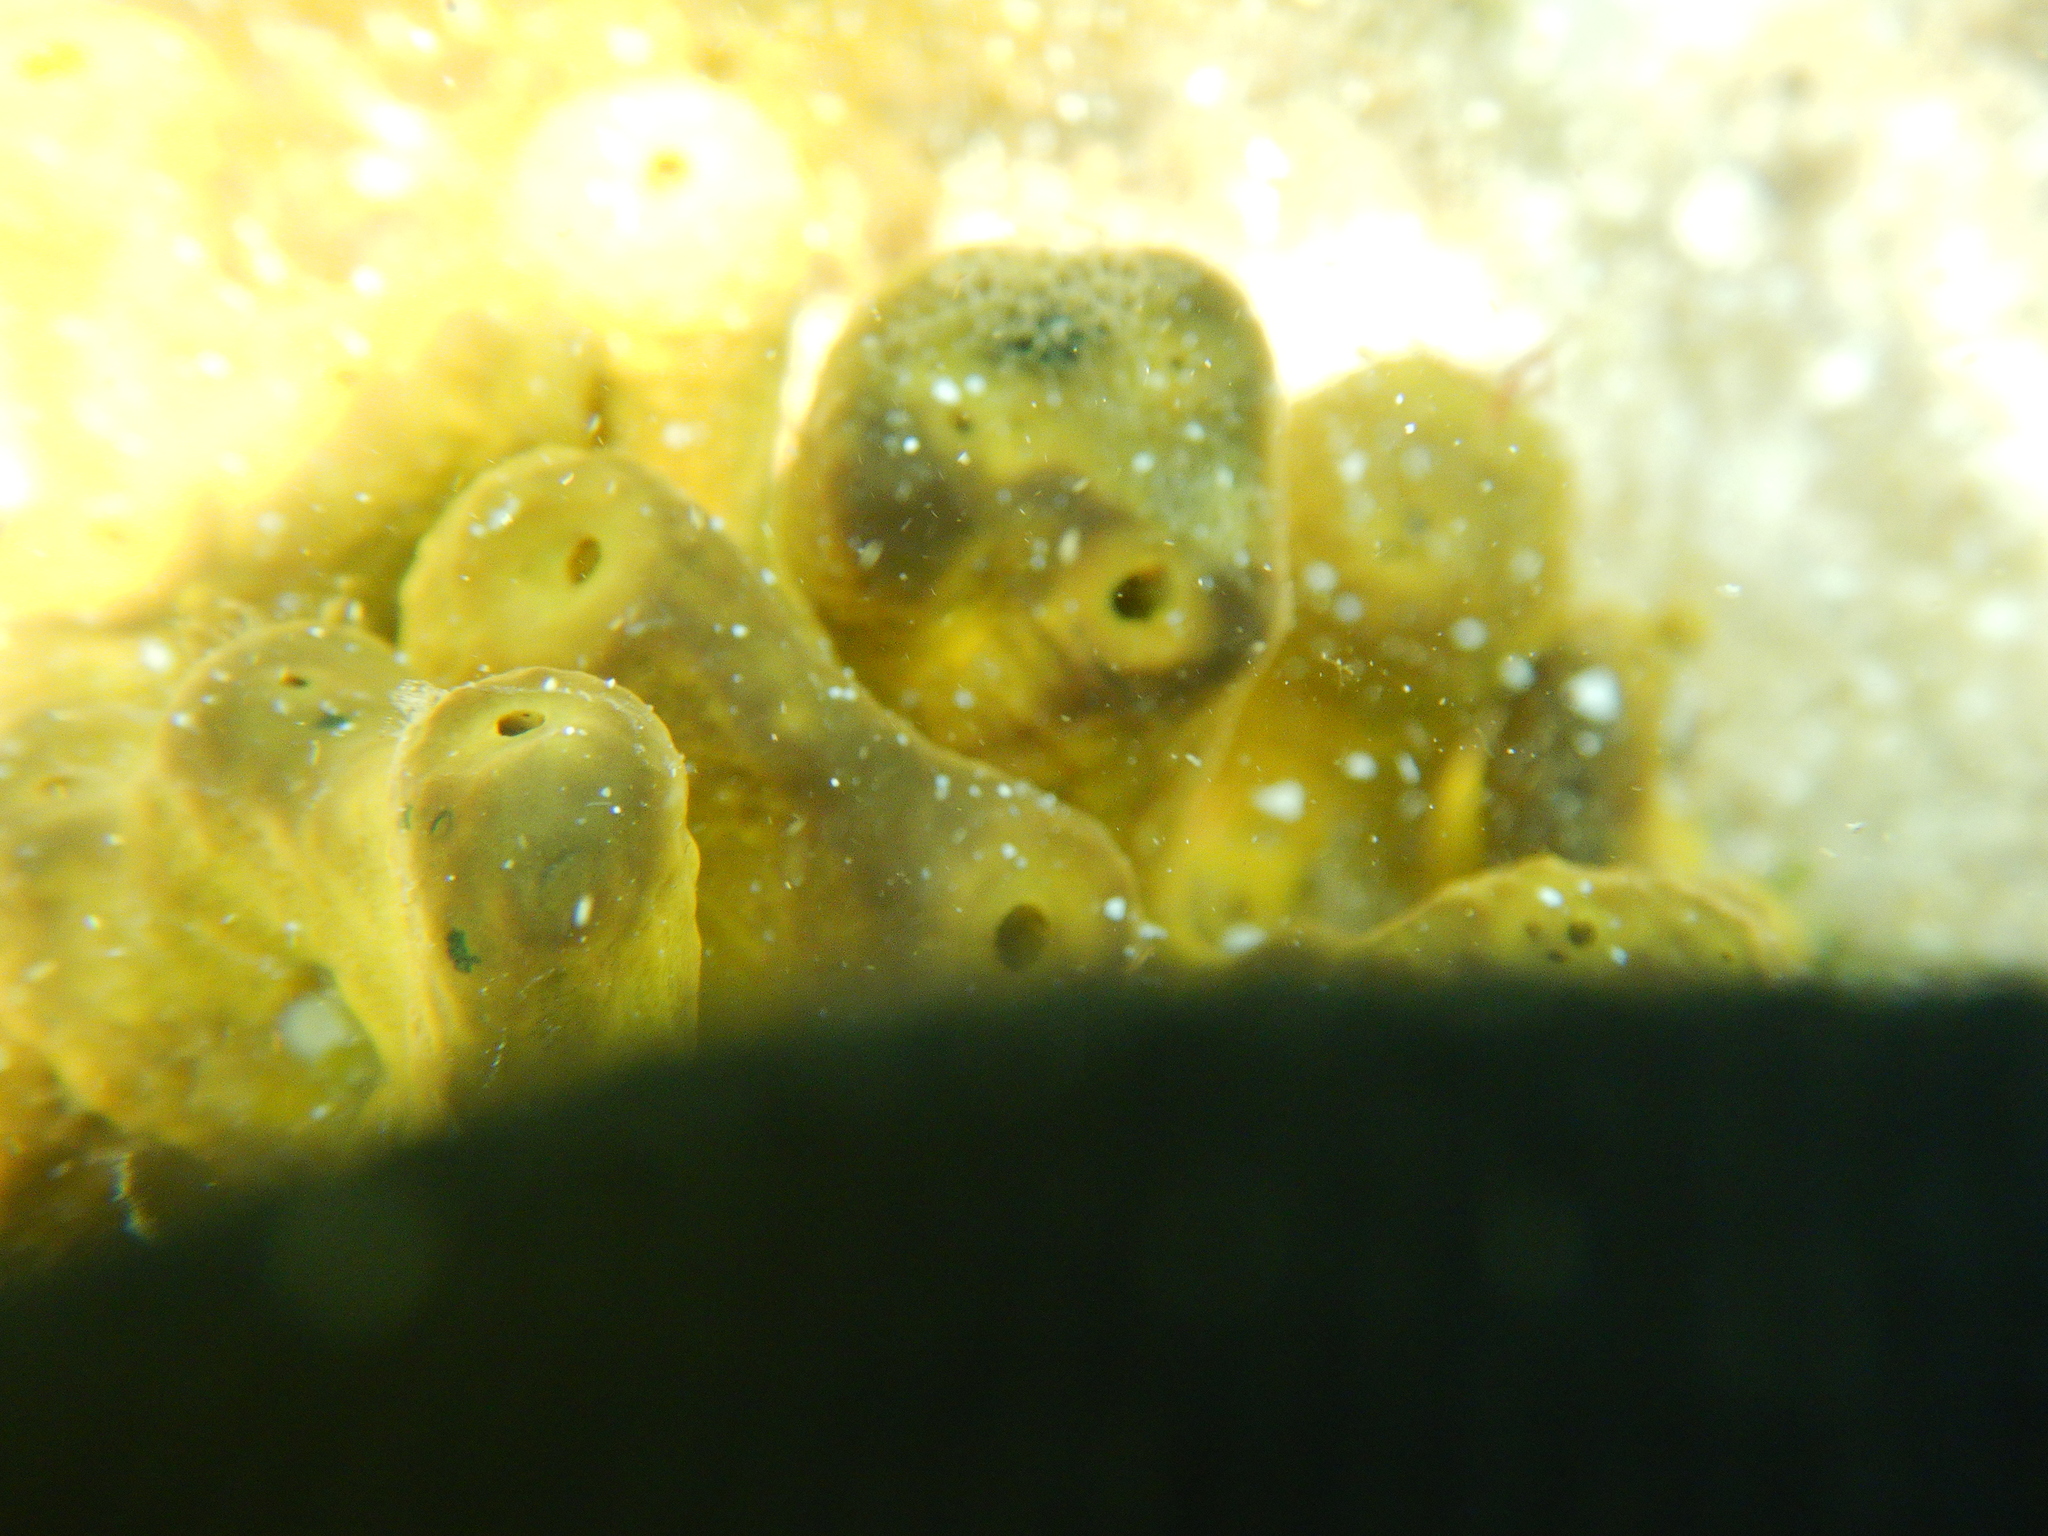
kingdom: Animalia
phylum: Porifera
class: Demospongiae
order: Verongiida
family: Aplysinidae
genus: Aplysina
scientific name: Aplysina aerophoba
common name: Aureate sponge
